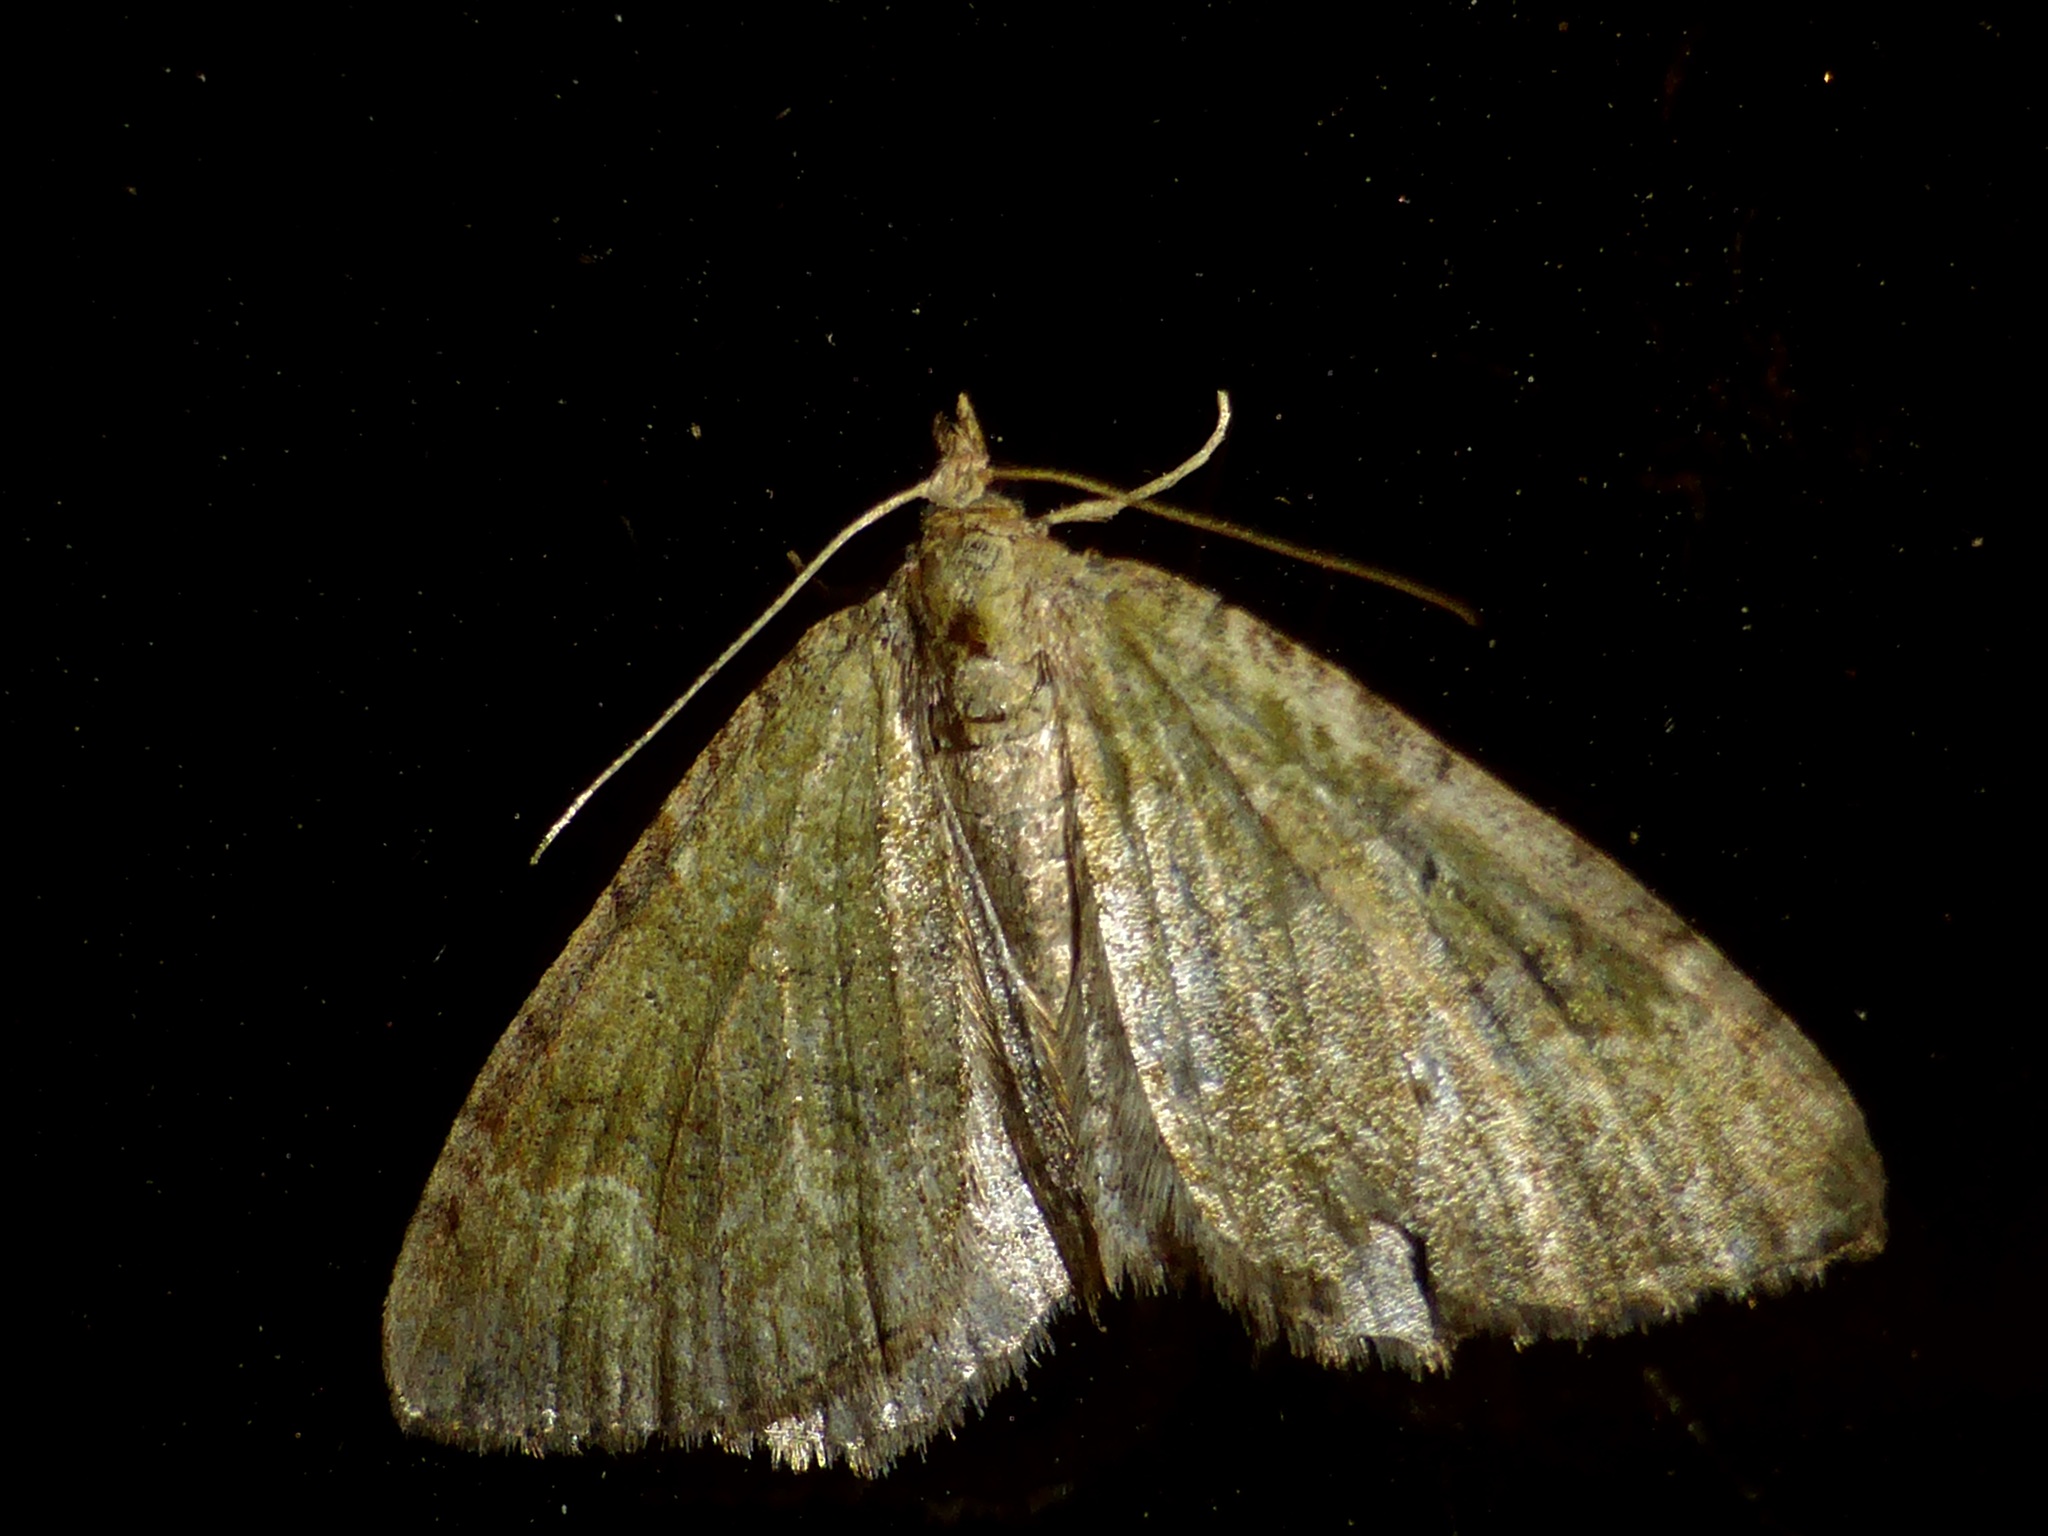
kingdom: Animalia
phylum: Arthropoda
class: Insecta
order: Lepidoptera
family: Geometridae
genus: Epyaxa
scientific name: Epyaxa rosearia
